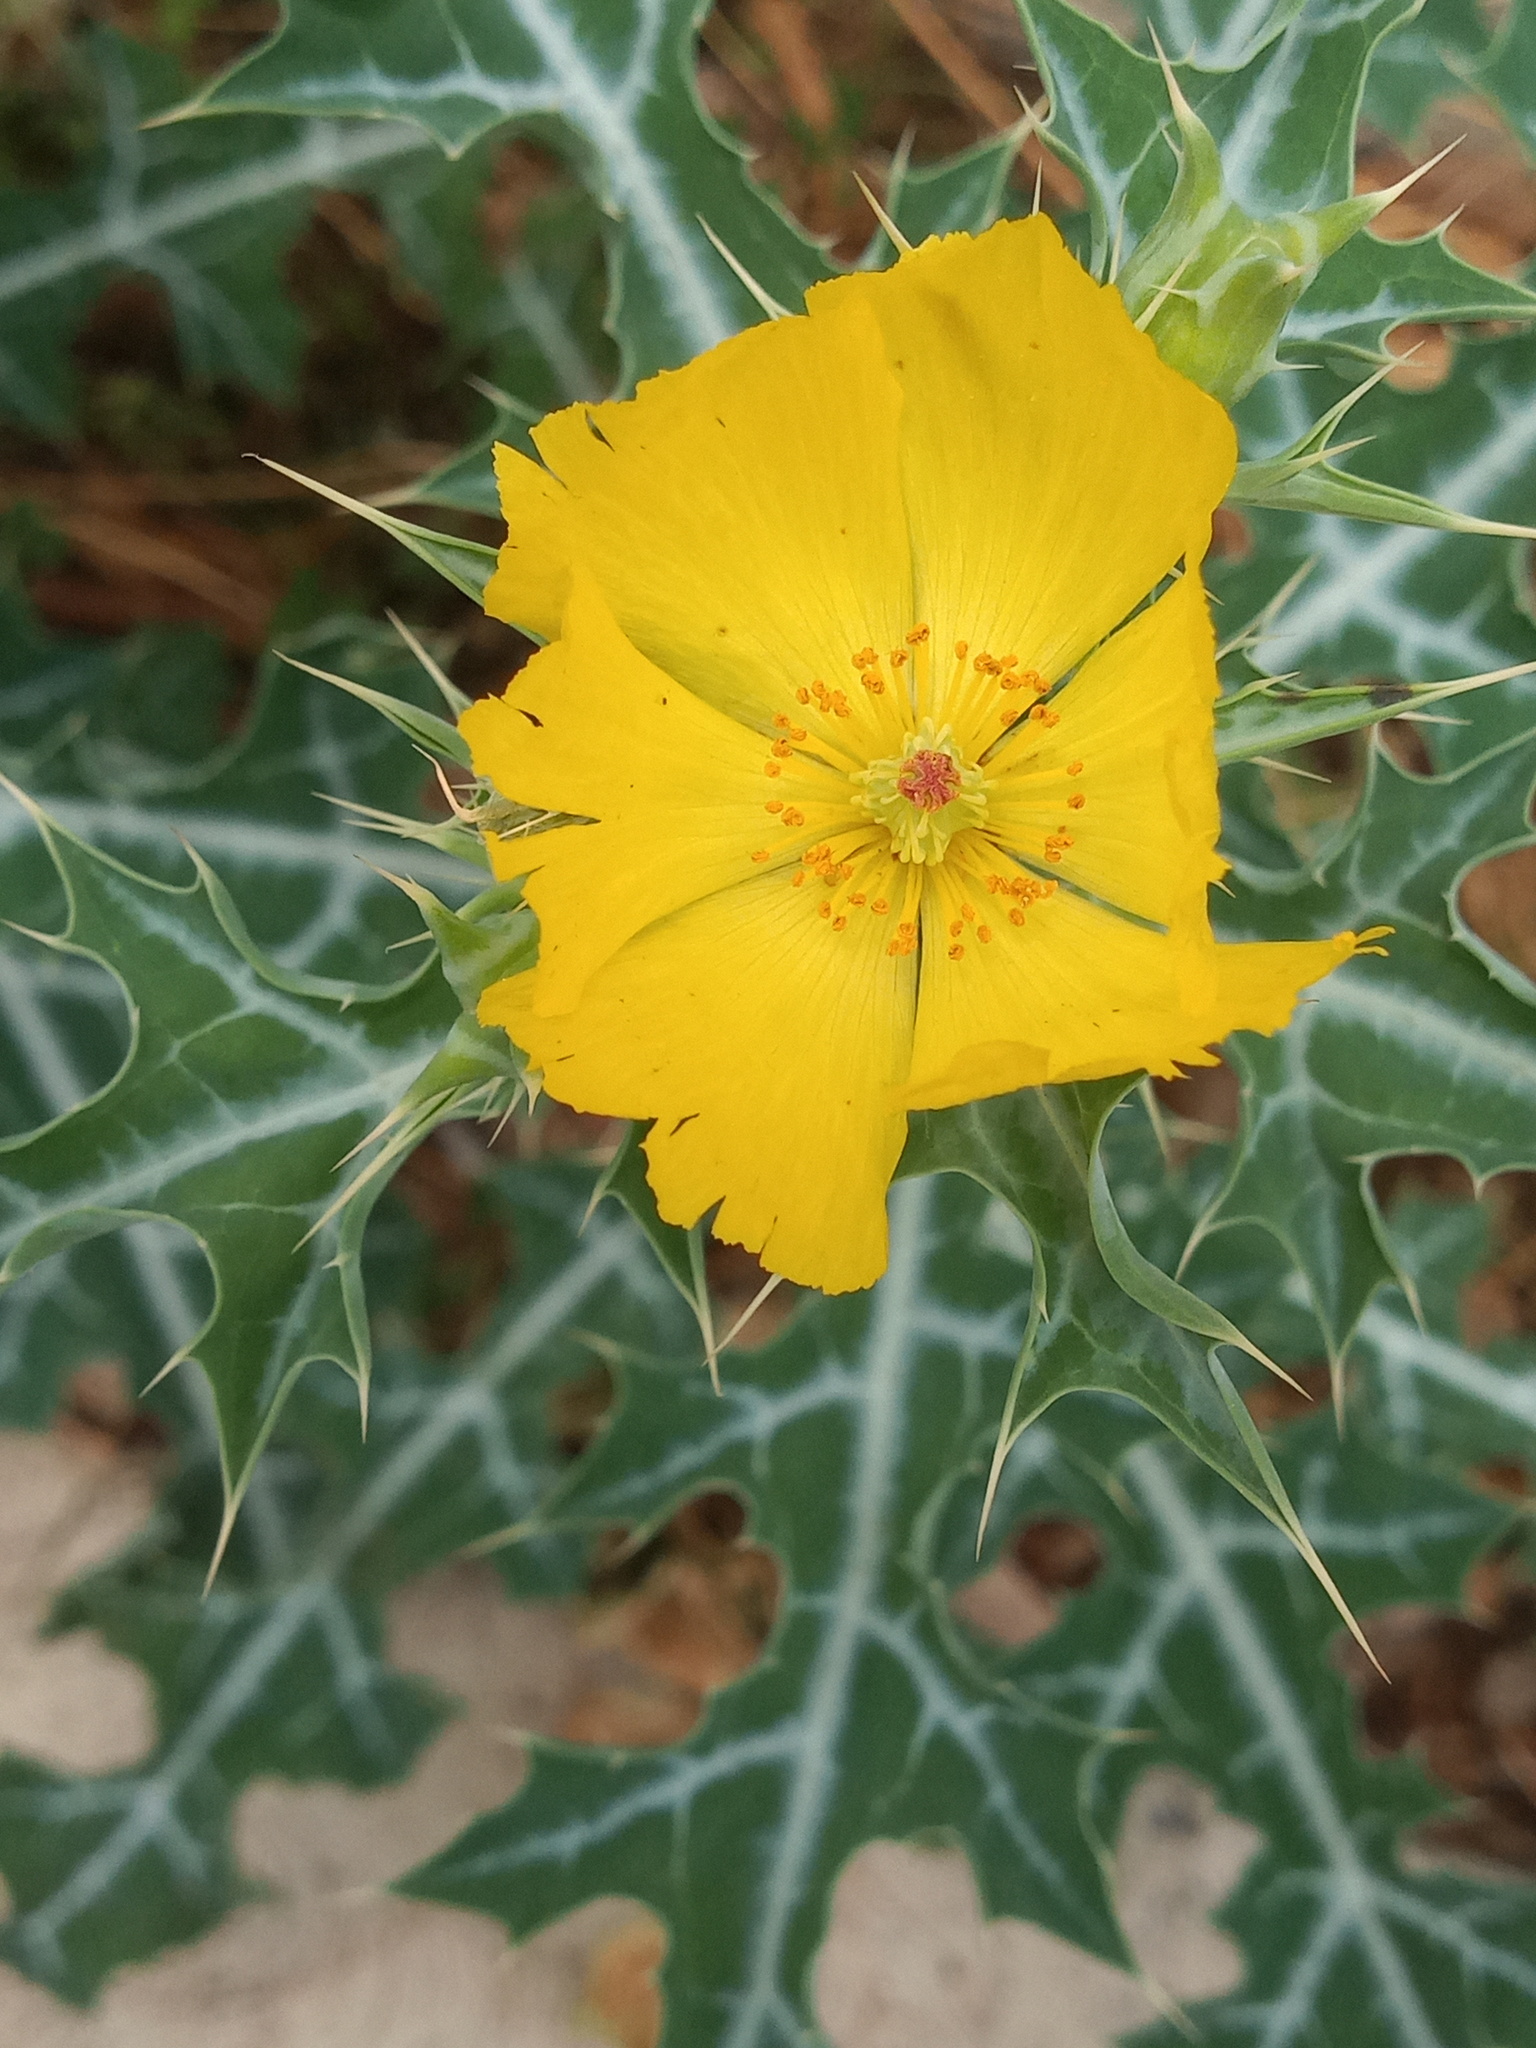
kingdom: Plantae
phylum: Tracheophyta
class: Magnoliopsida
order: Ranunculales
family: Papaveraceae
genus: Argemone
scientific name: Argemone mexicana
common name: Mexican poppy
